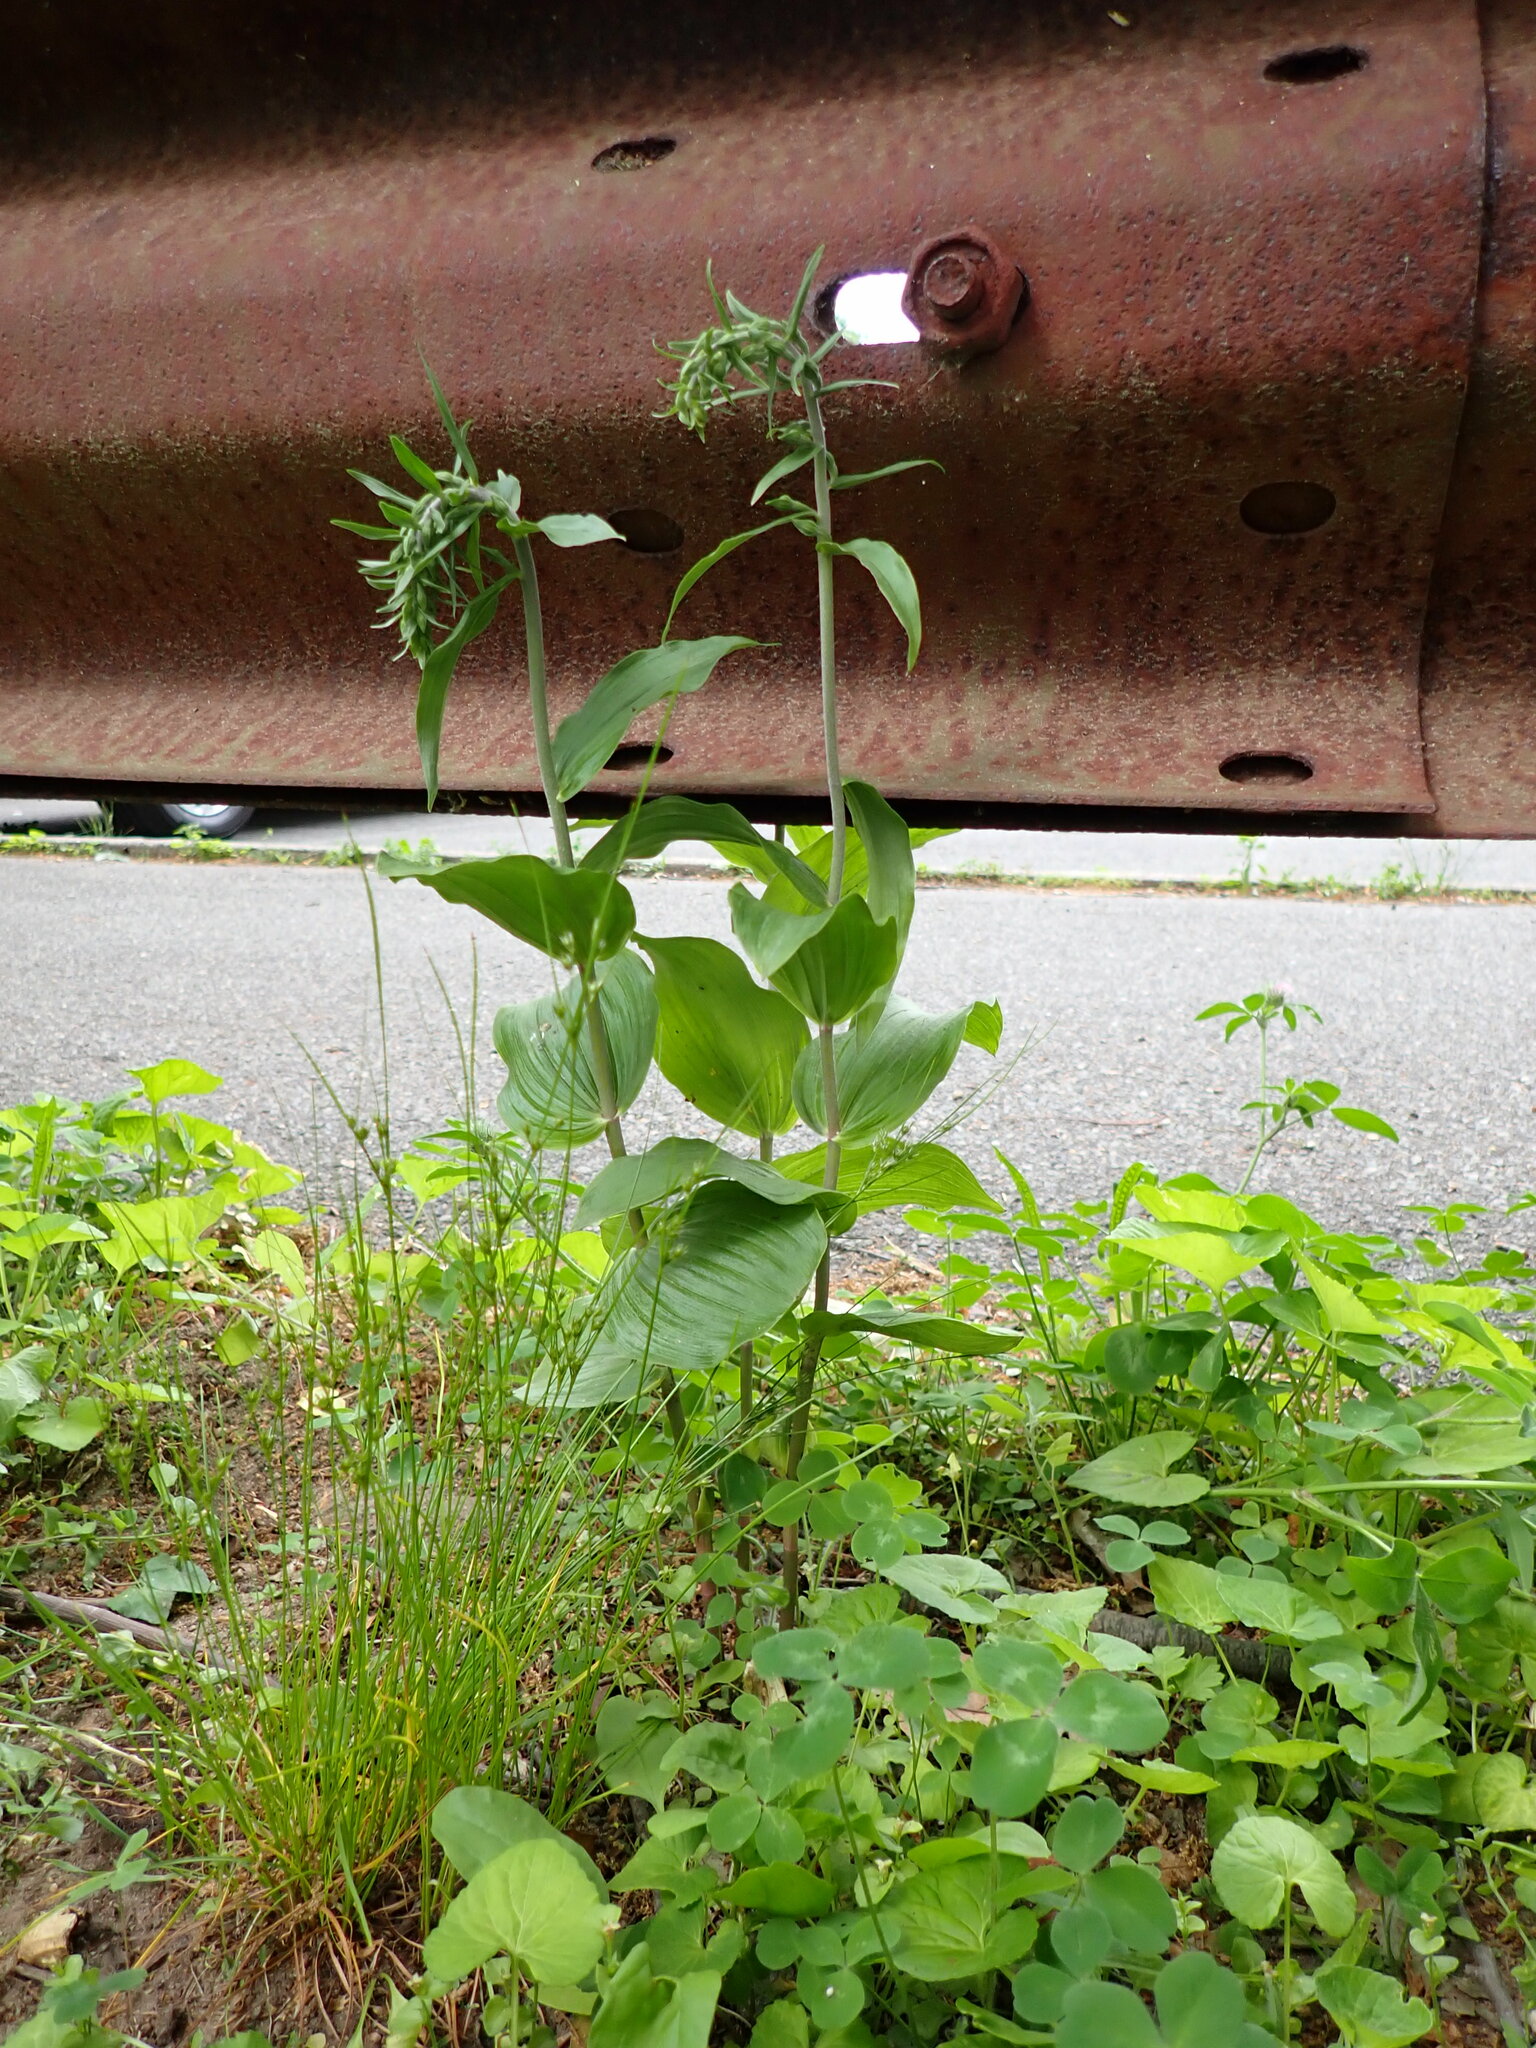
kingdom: Plantae
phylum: Tracheophyta
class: Liliopsida
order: Asparagales
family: Orchidaceae
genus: Epipactis
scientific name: Epipactis helleborine
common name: Broad-leaved helleborine
